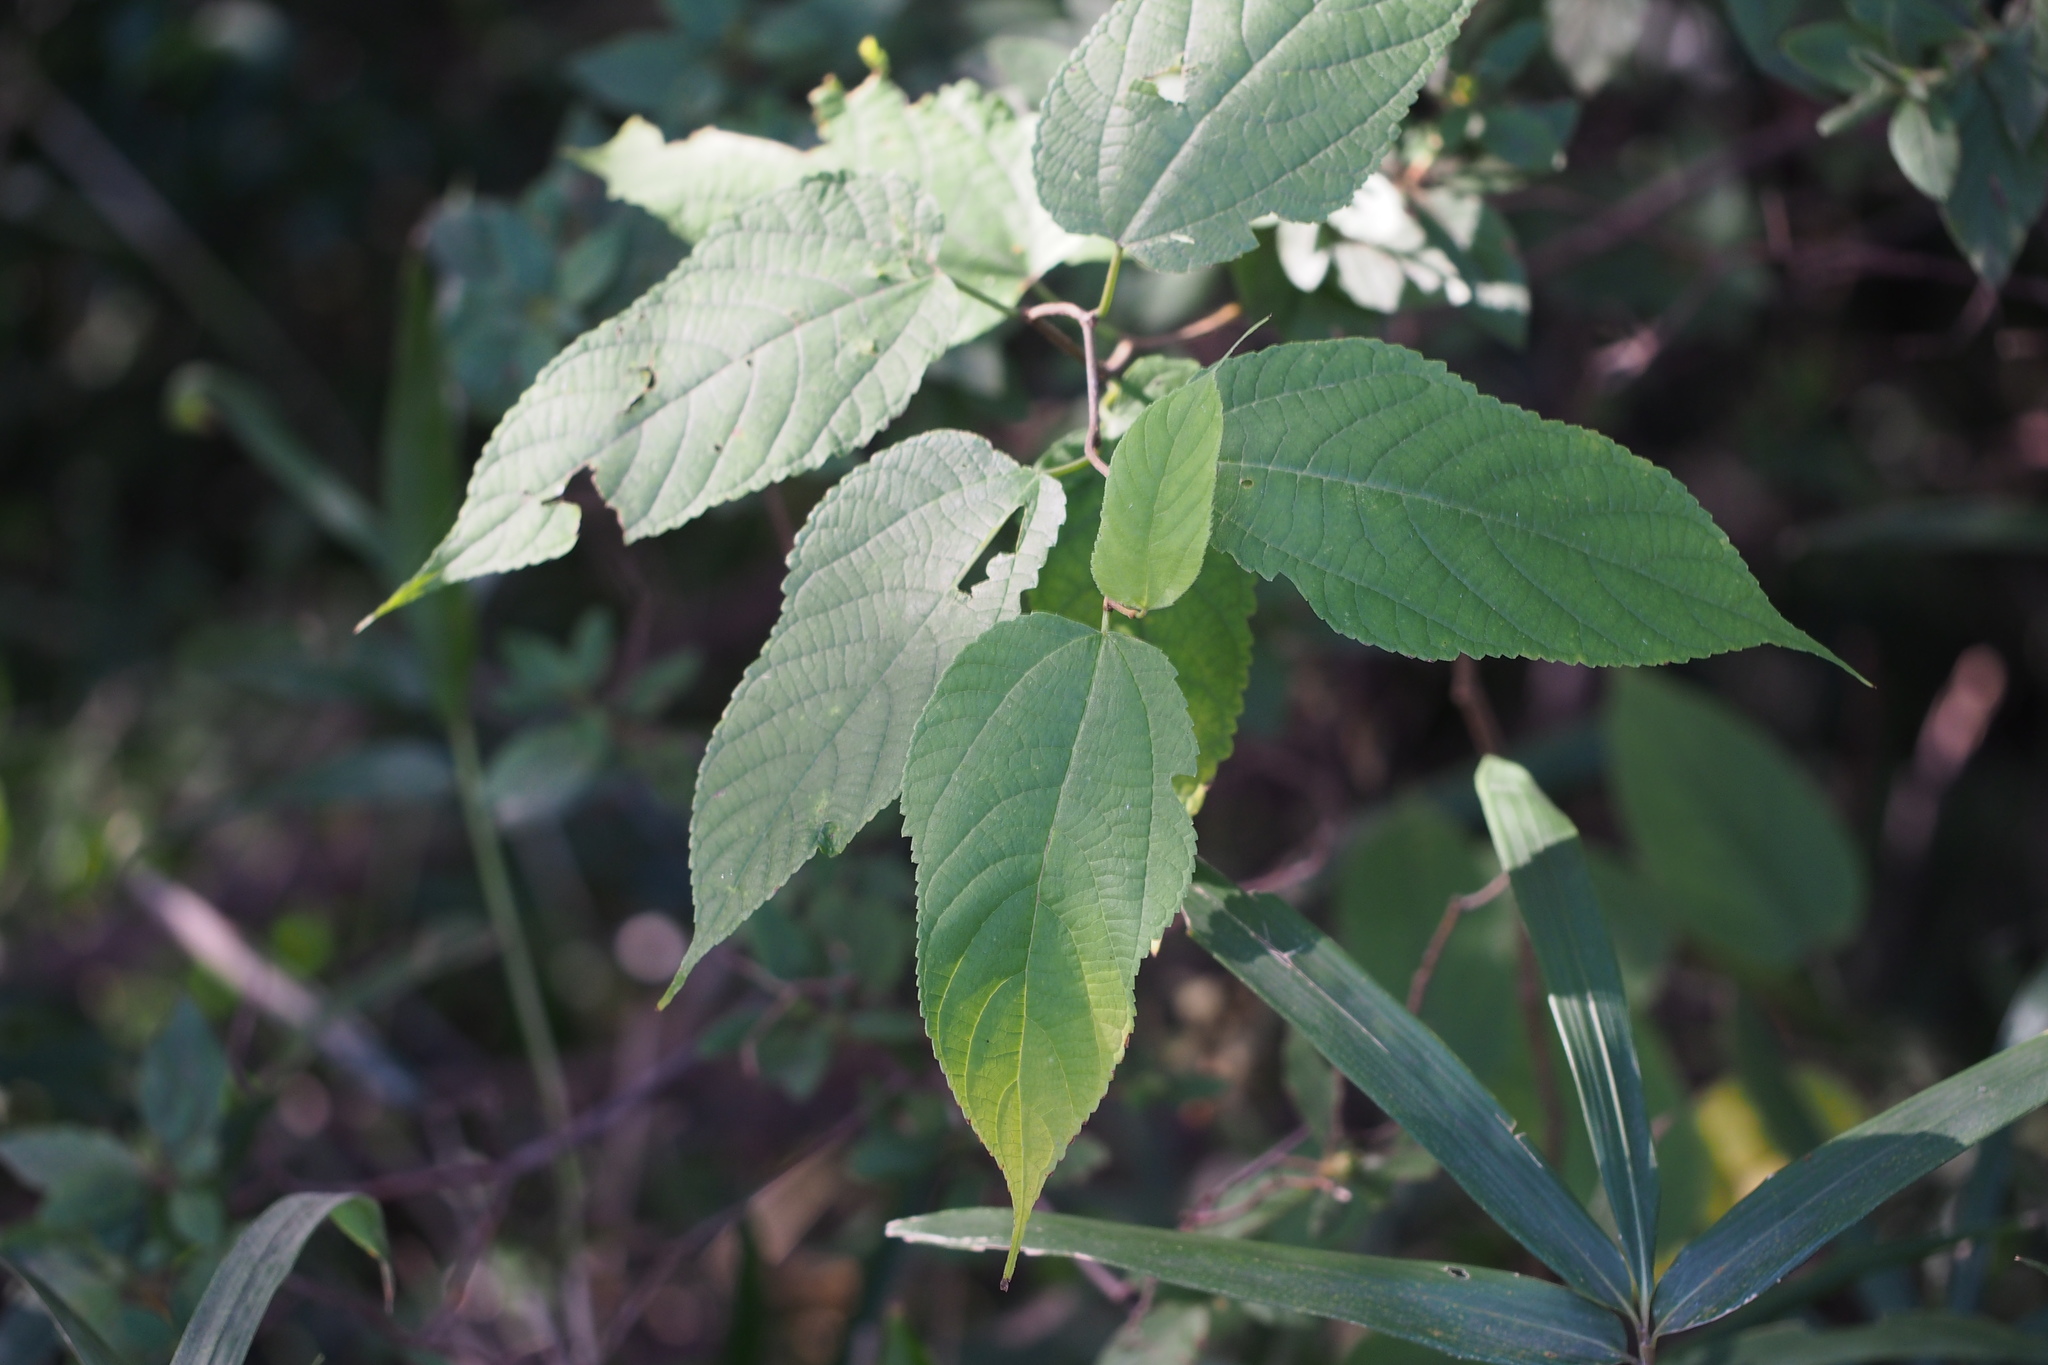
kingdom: Plantae
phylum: Tracheophyta
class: Magnoliopsida
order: Rosales
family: Moraceae
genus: Broussonetia
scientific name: Broussonetia monoica
